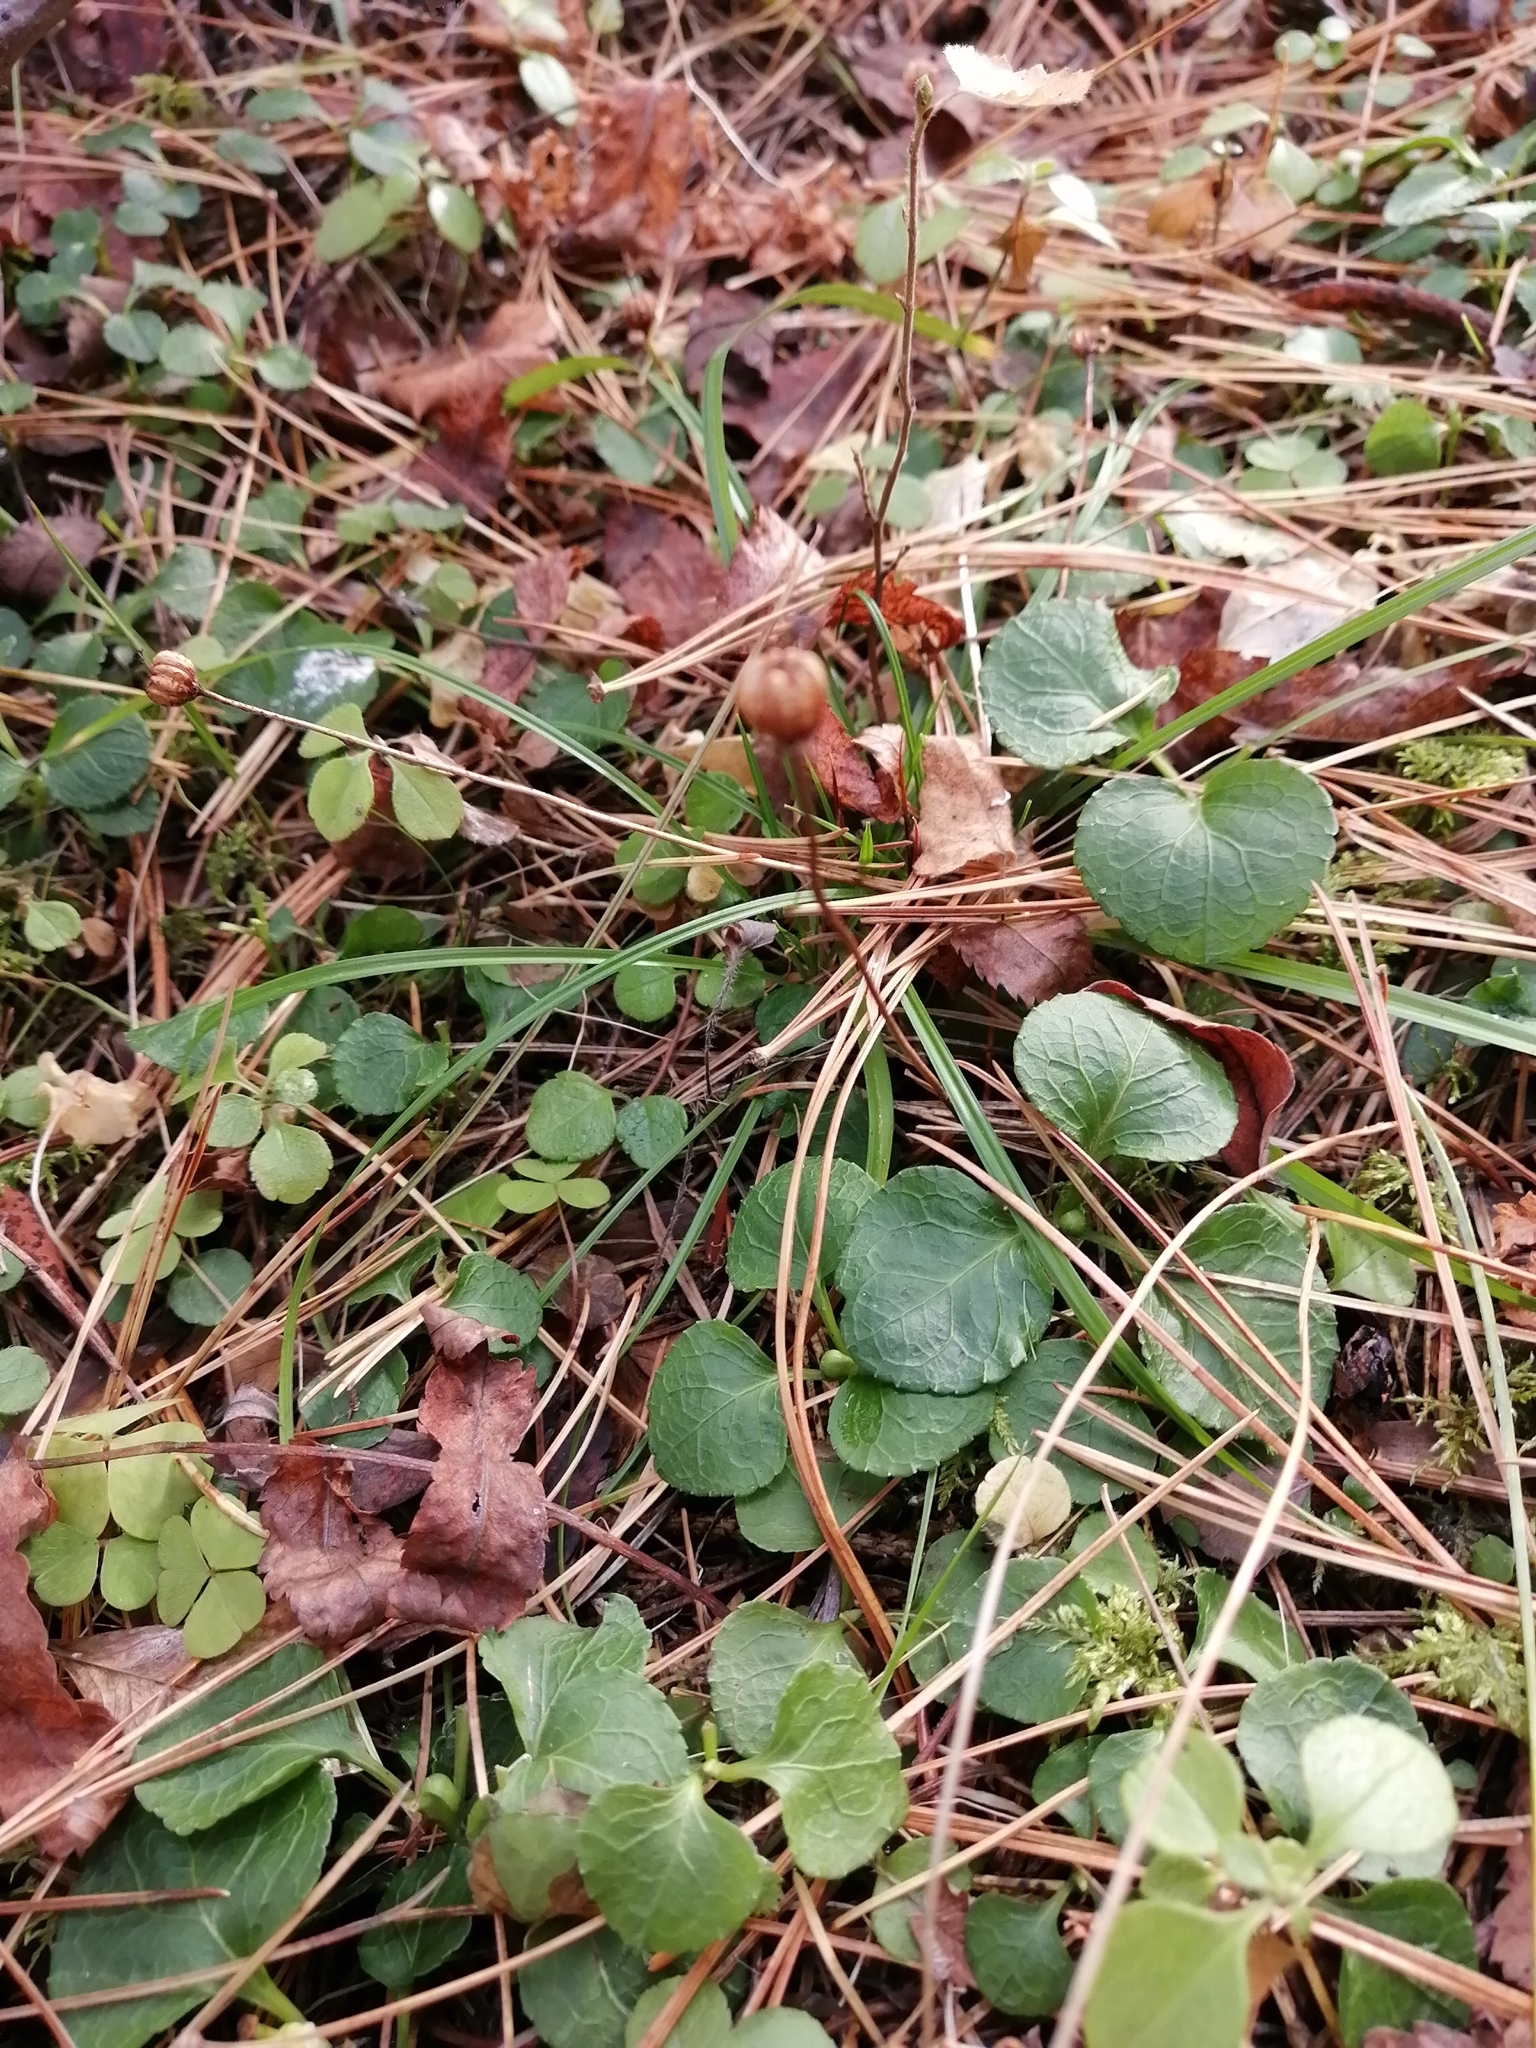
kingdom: Plantae
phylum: Tracheophyta
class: Magnoliopsida
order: Ericales
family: Ericaceae
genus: Moneses
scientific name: Moneses uniflora
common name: One-flowered wintergreen
